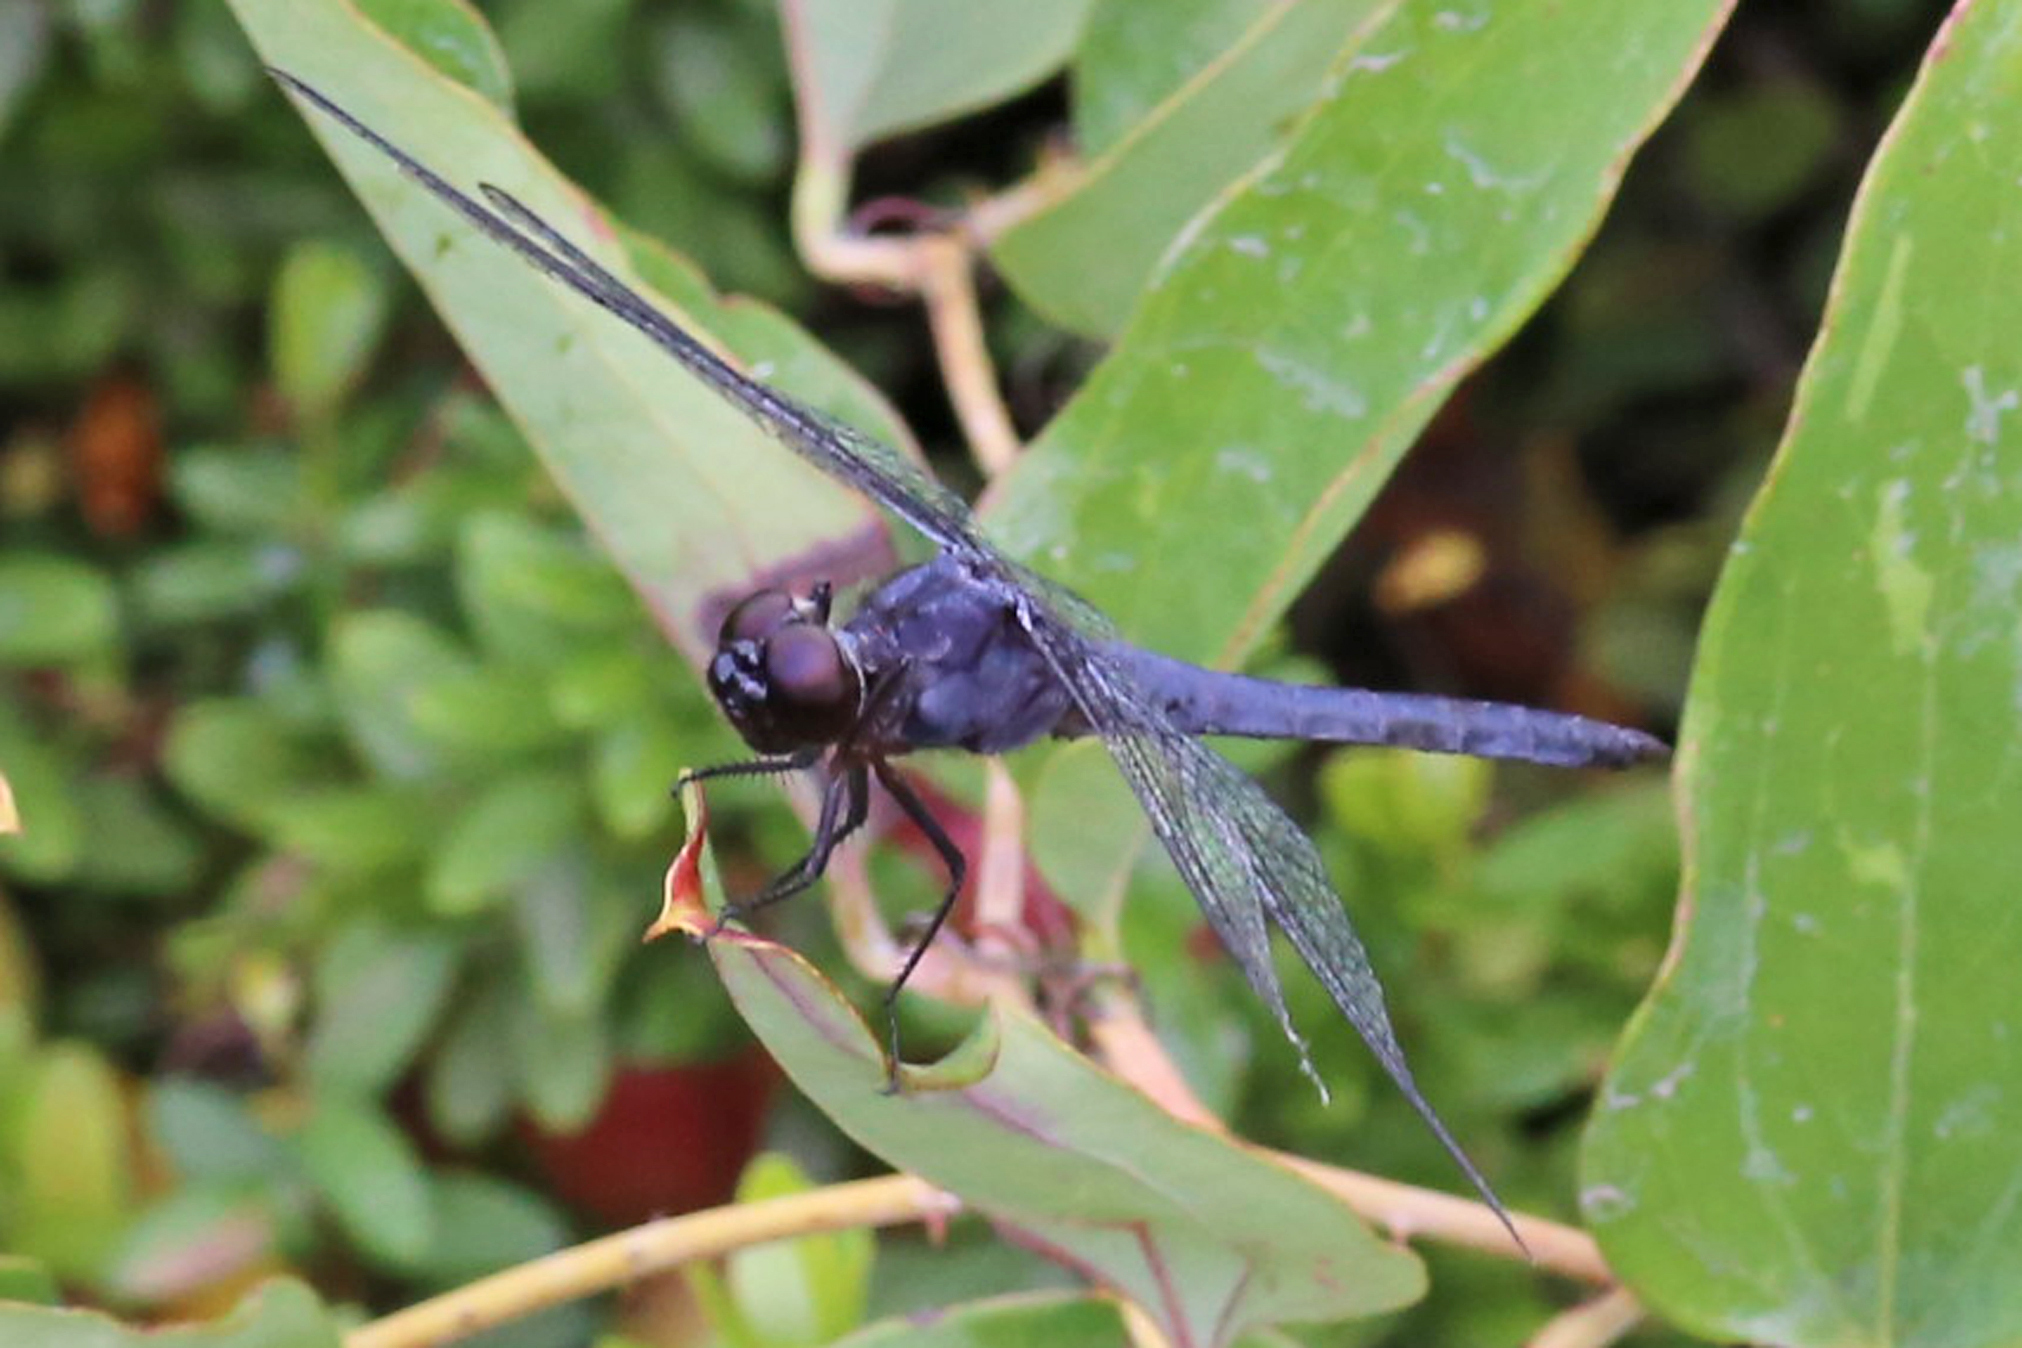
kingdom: Animalia
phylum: Arthropoda
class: Insecta
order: Odonata
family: Libellulidae
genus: Libellula
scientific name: Libellula incesta
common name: Slaty skimmer
